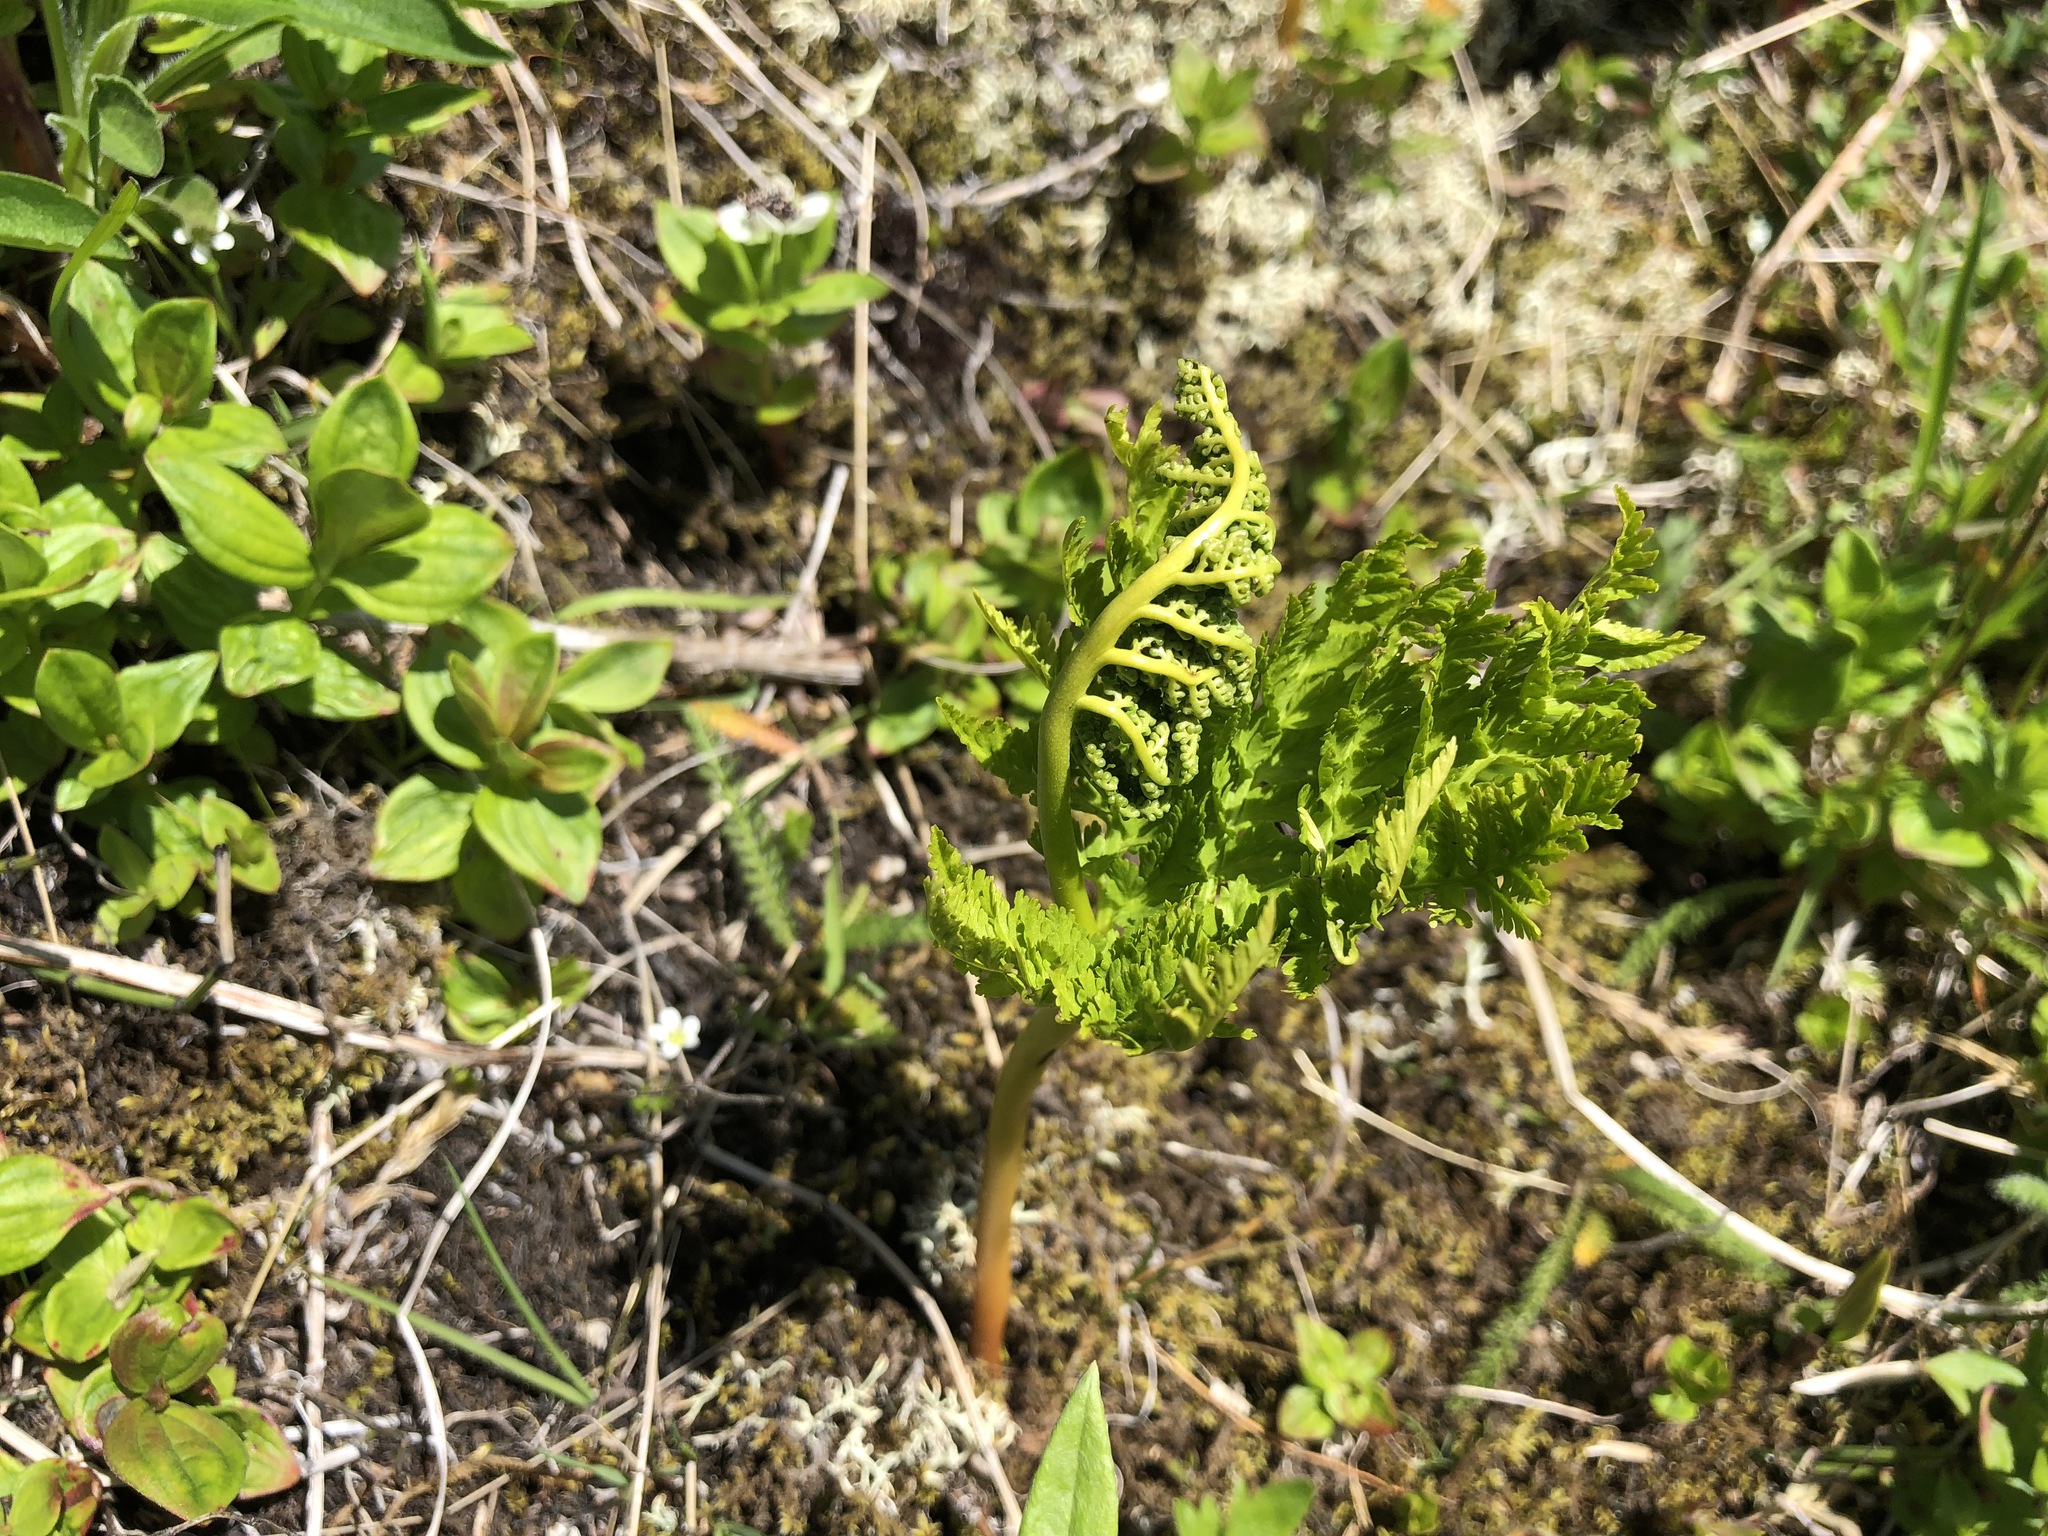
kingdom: Plantae
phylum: Tracheophyta
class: Polypodiopsida
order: Ophioglossales
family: Ophioglossaceae
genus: Botrypus
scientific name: Botrypus virginianus
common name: Common grapefern
